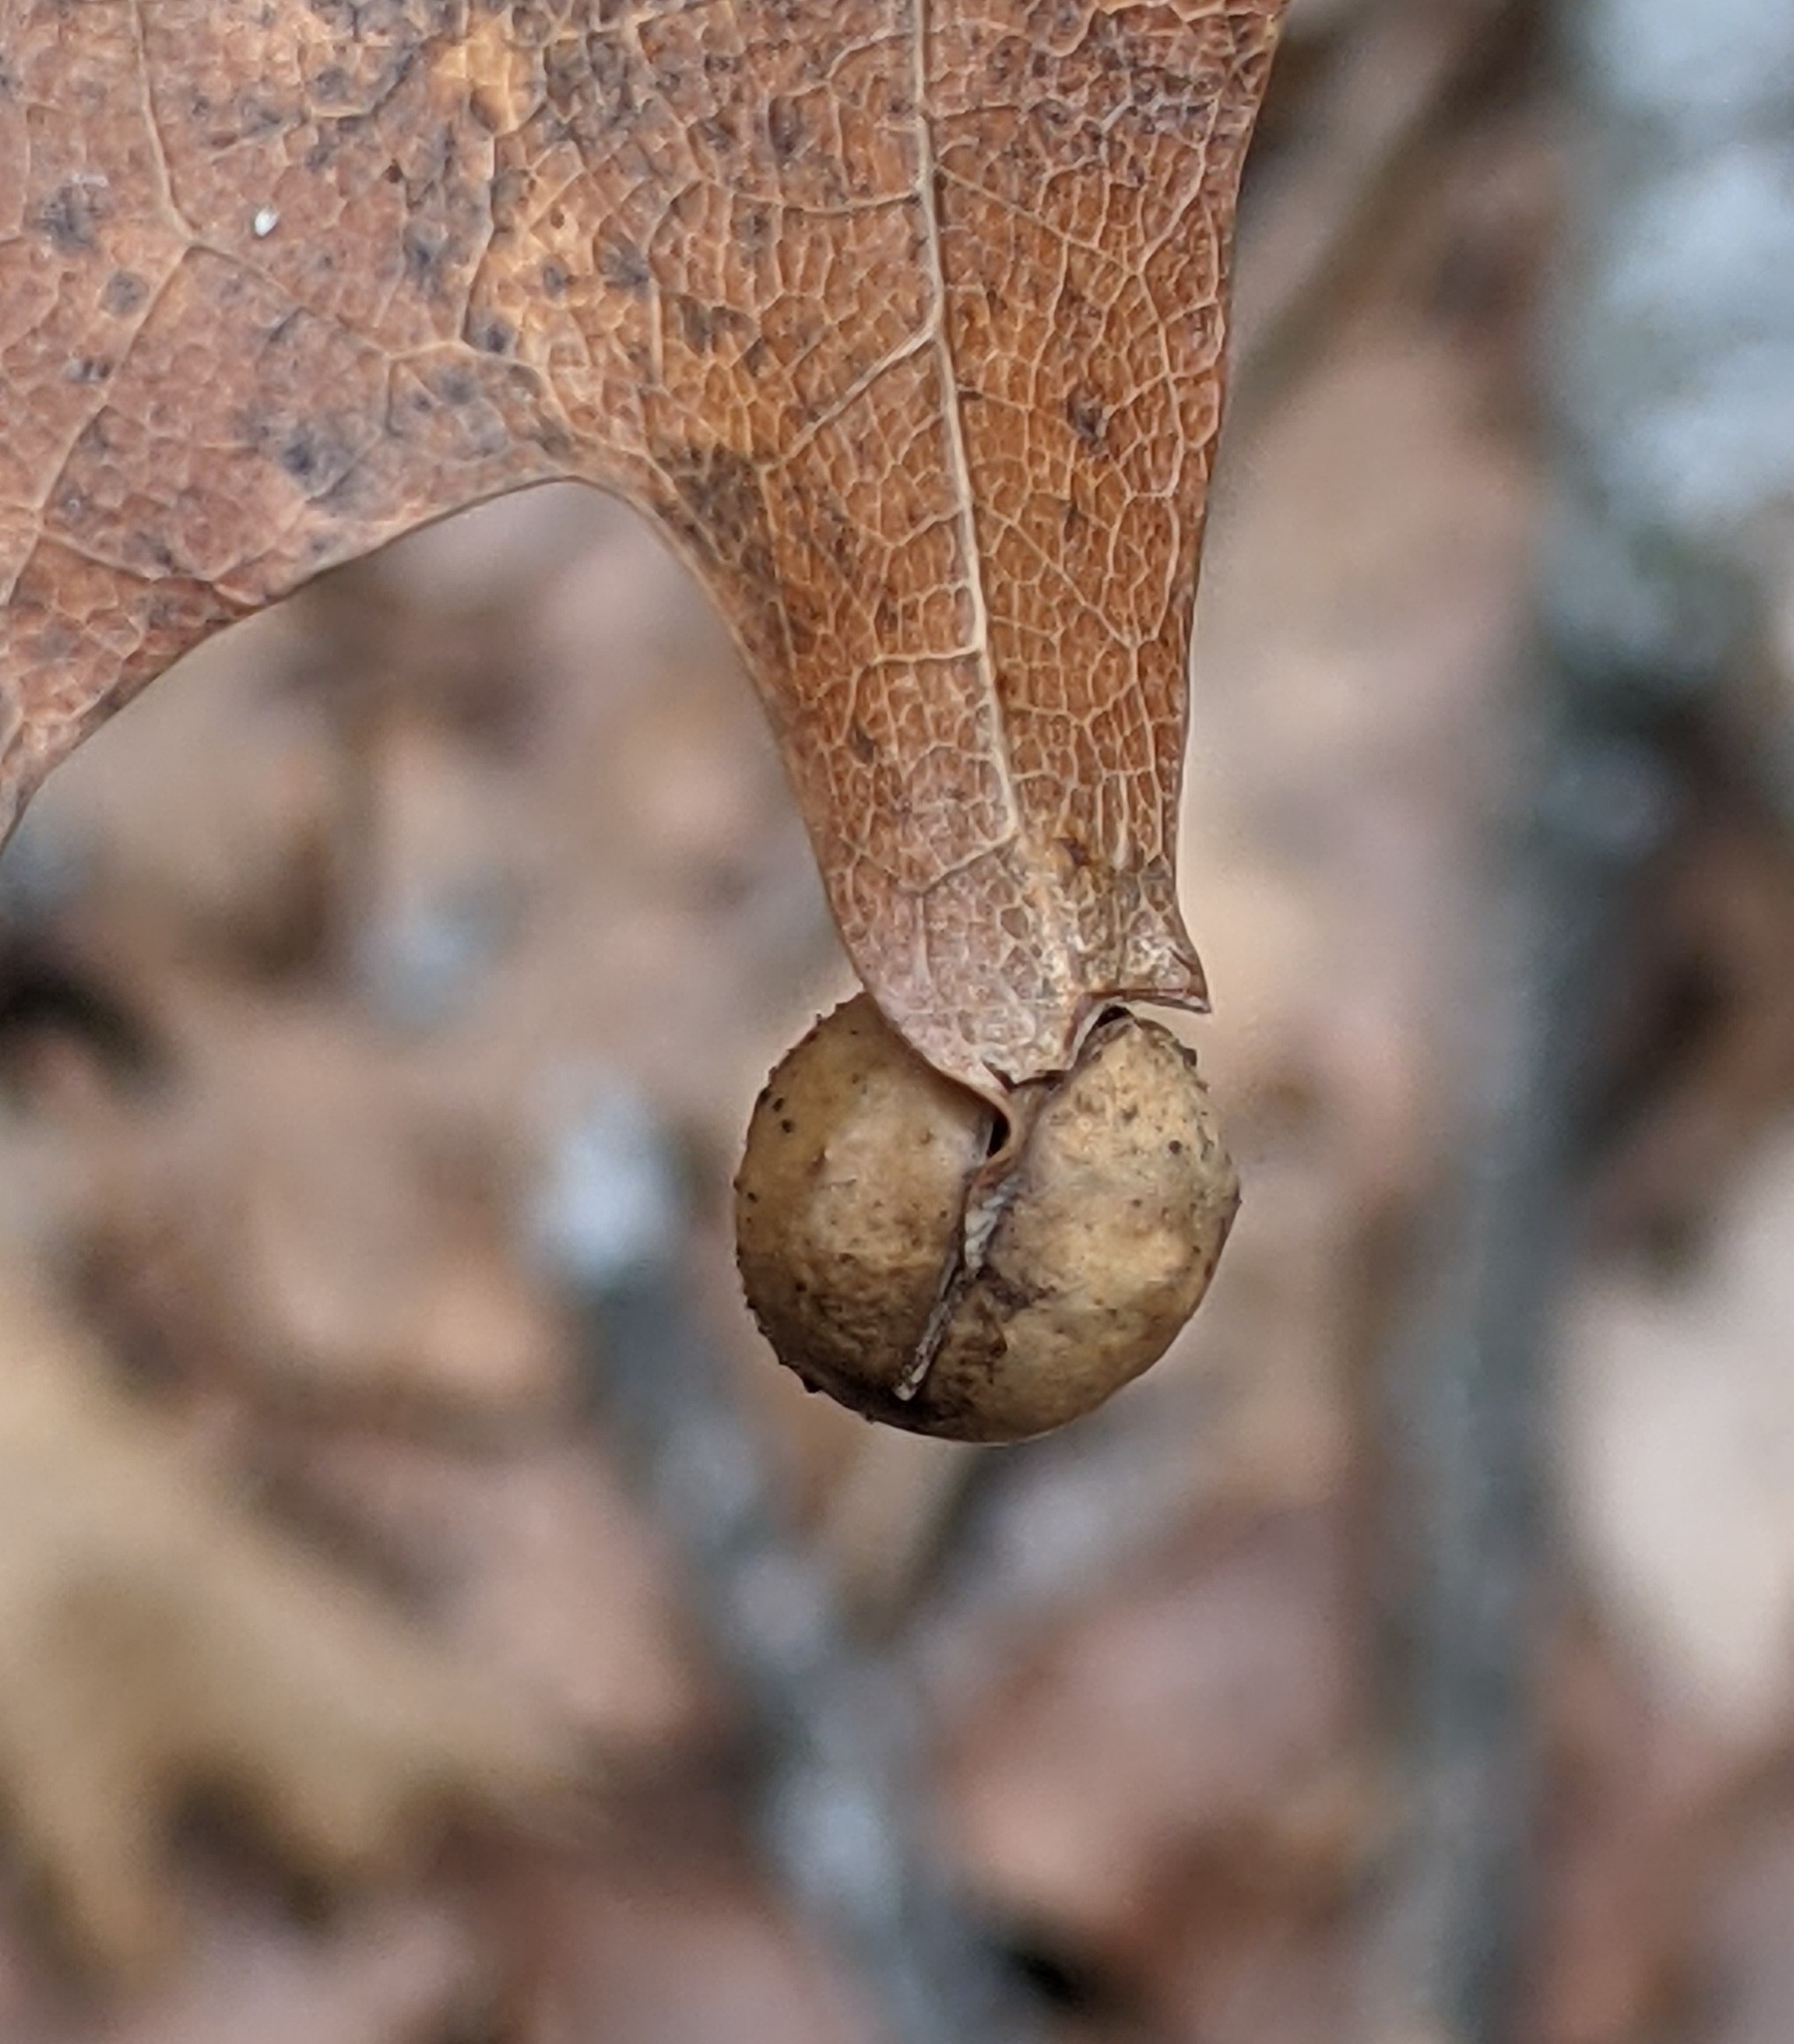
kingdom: Animalia
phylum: Arthropoda
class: Insecta
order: Hymenoptera
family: Cynipidae
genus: Amphibolips
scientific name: Amphibolips
